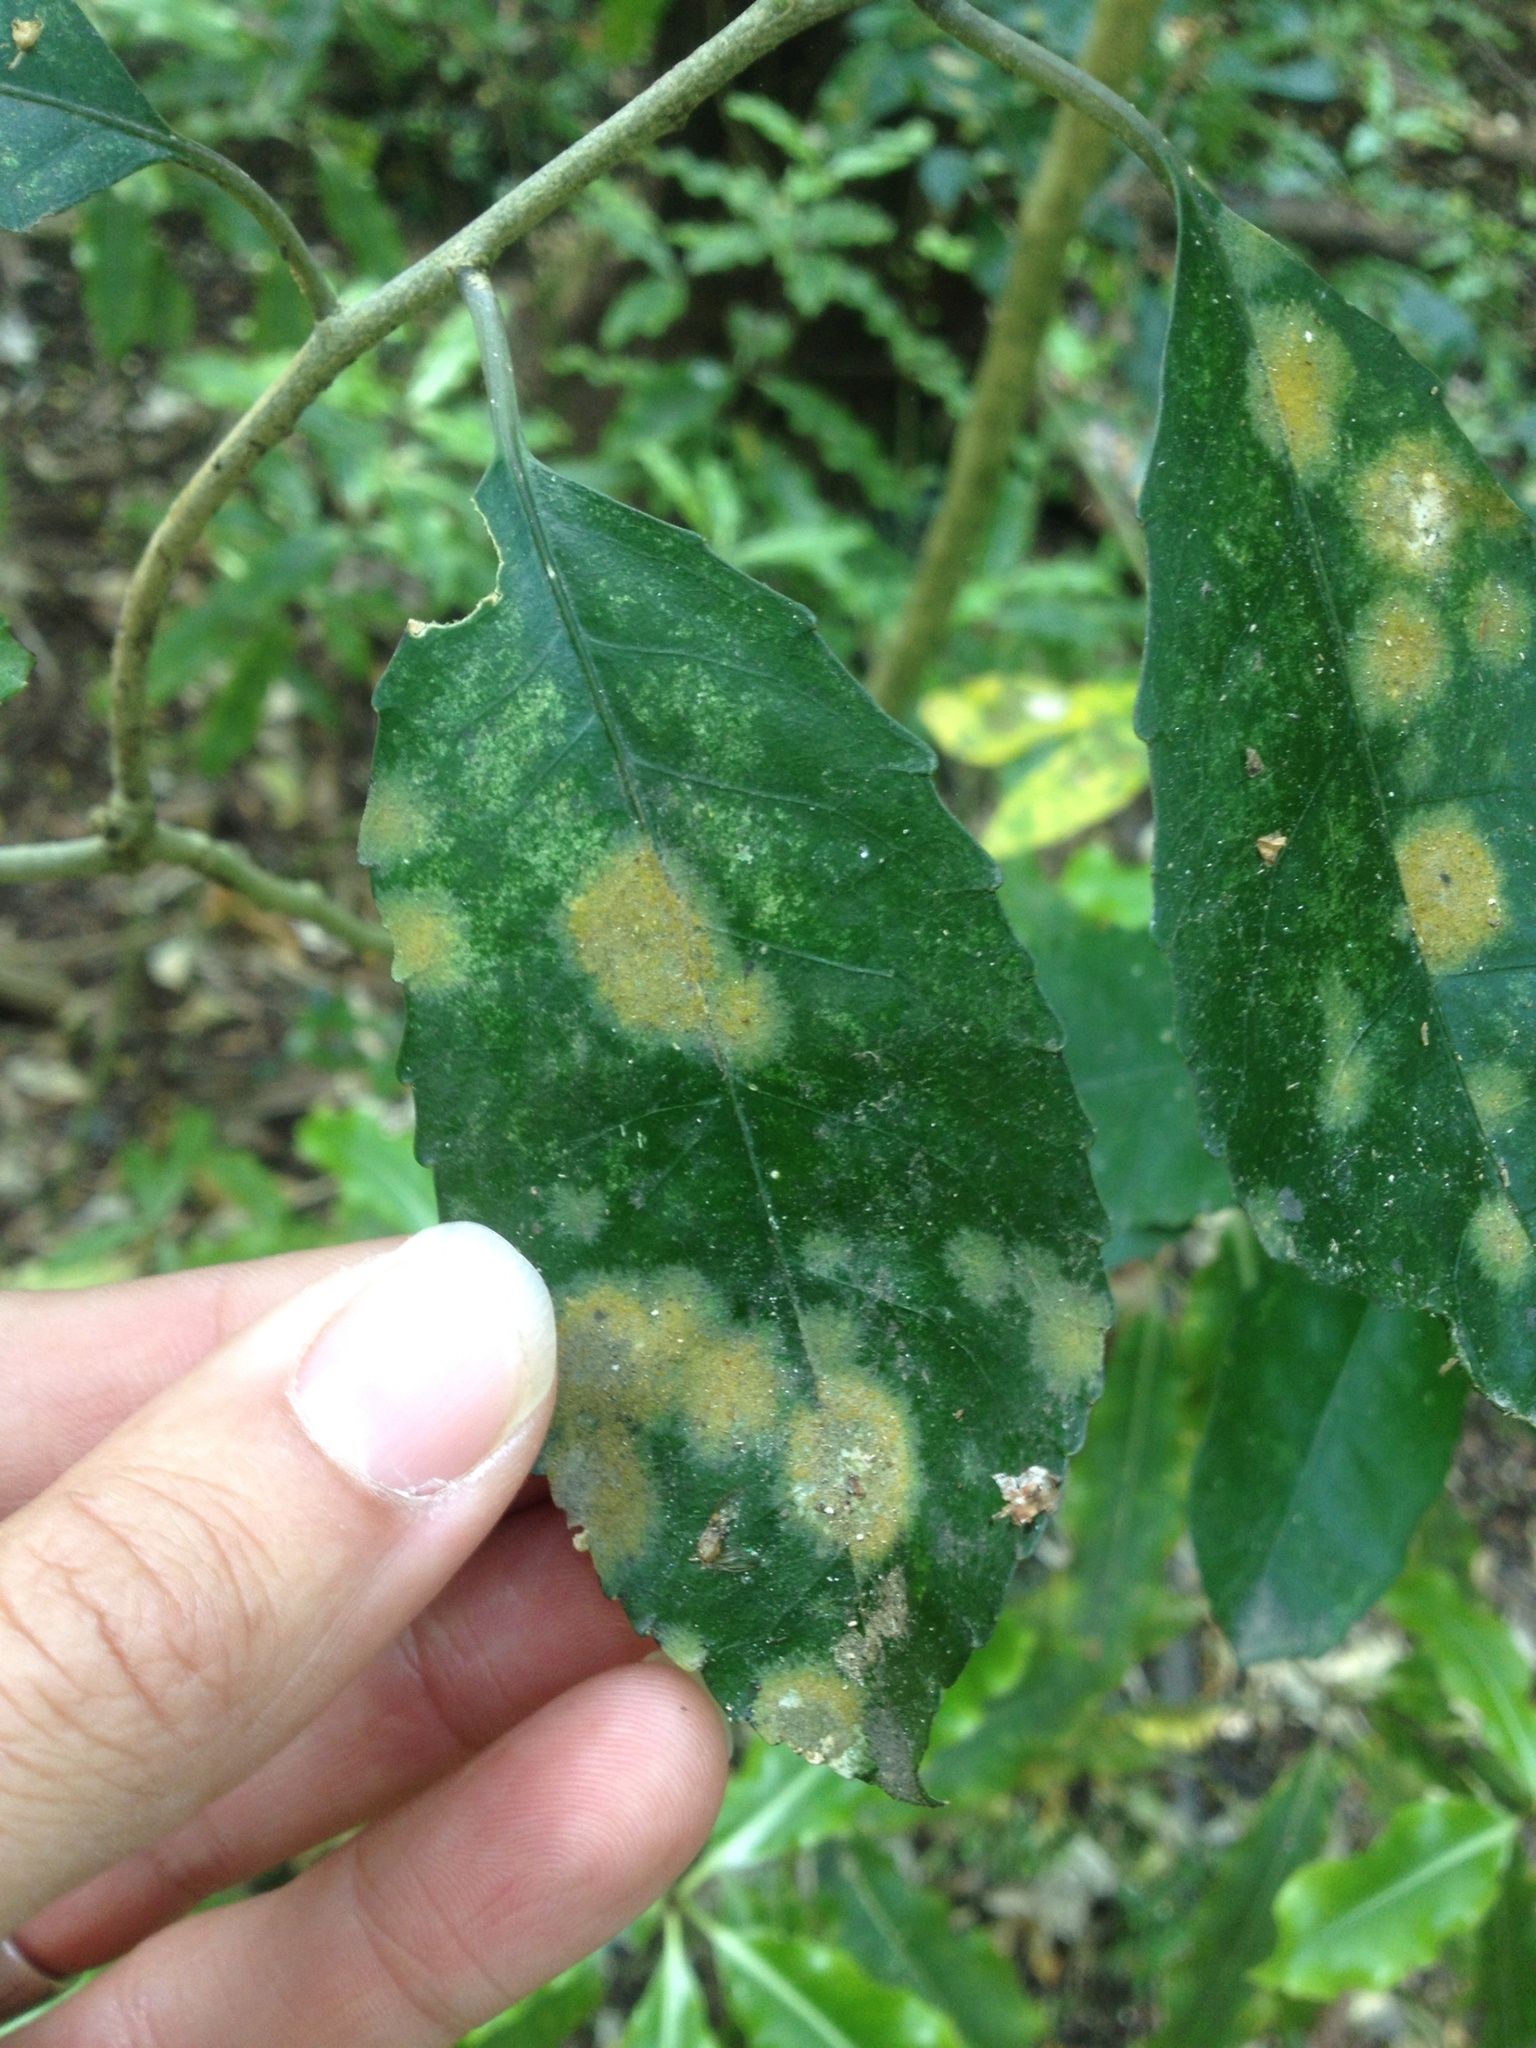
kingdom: Plantae
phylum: Chlorophyta
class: Ulvophyceae
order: Trentepohliales
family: Trentepohliaceae
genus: Cephaleuros
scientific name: Cephaleuros
